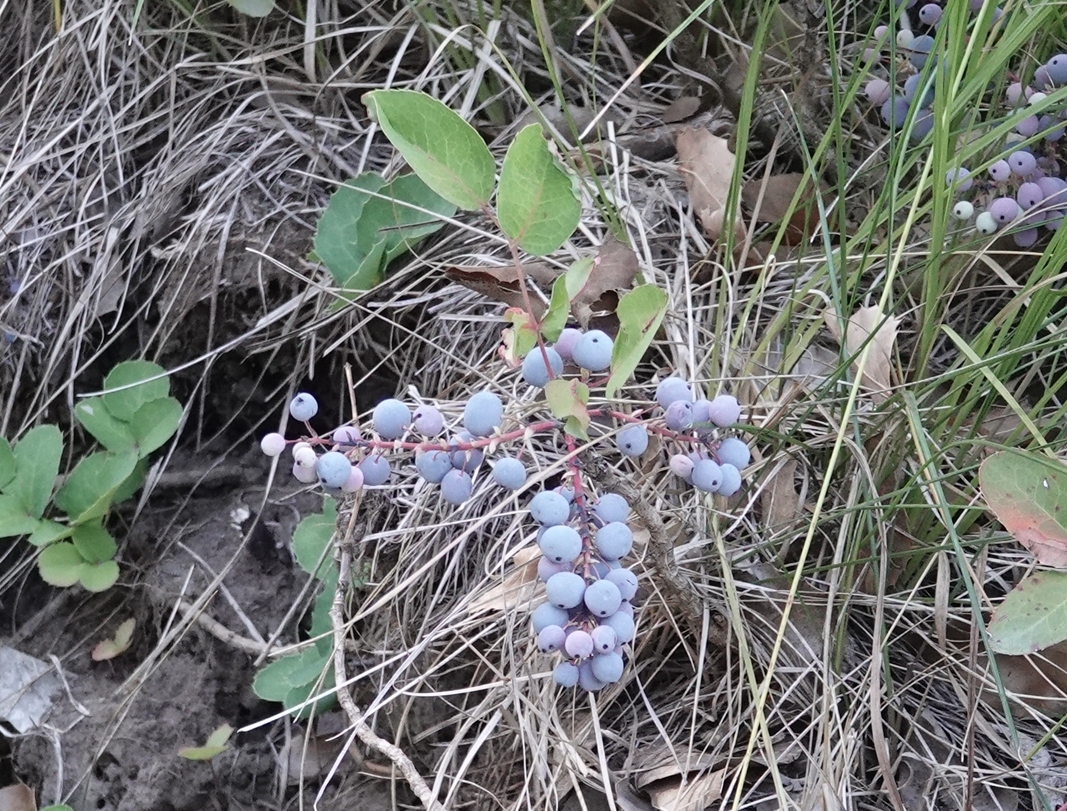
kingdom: Plantae
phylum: Tracheophyta
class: Magnoliopsida
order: Ranunculales
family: Berberidaceae
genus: Mahonia
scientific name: Mahonia repens
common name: Creeping oregon-grape
